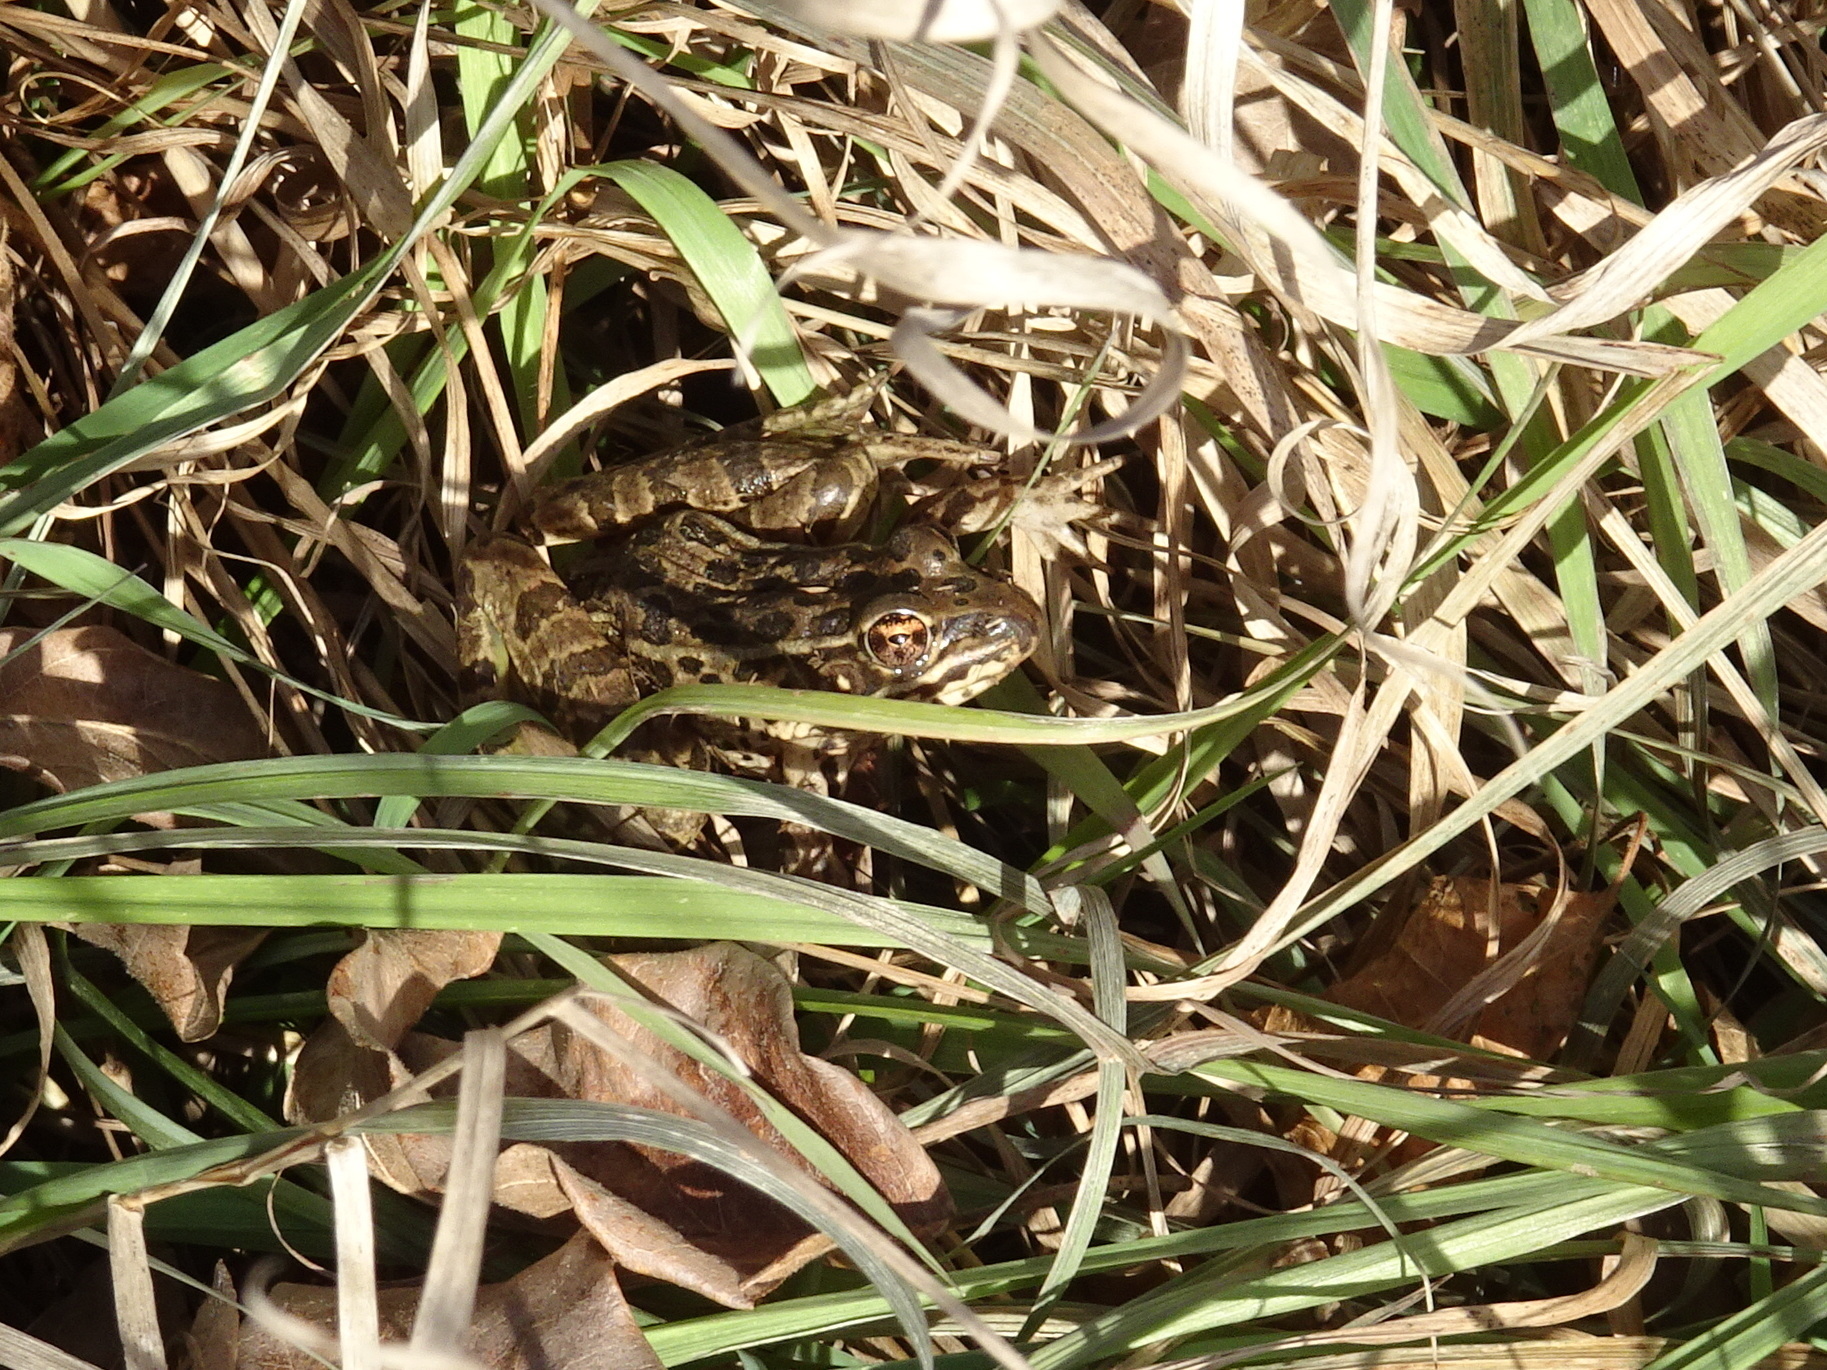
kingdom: Animalia
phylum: Chordata
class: Amphibia
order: Anura
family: Ranidae
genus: Lithobates
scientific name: Lithobates blairi
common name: Plains leopard frog
